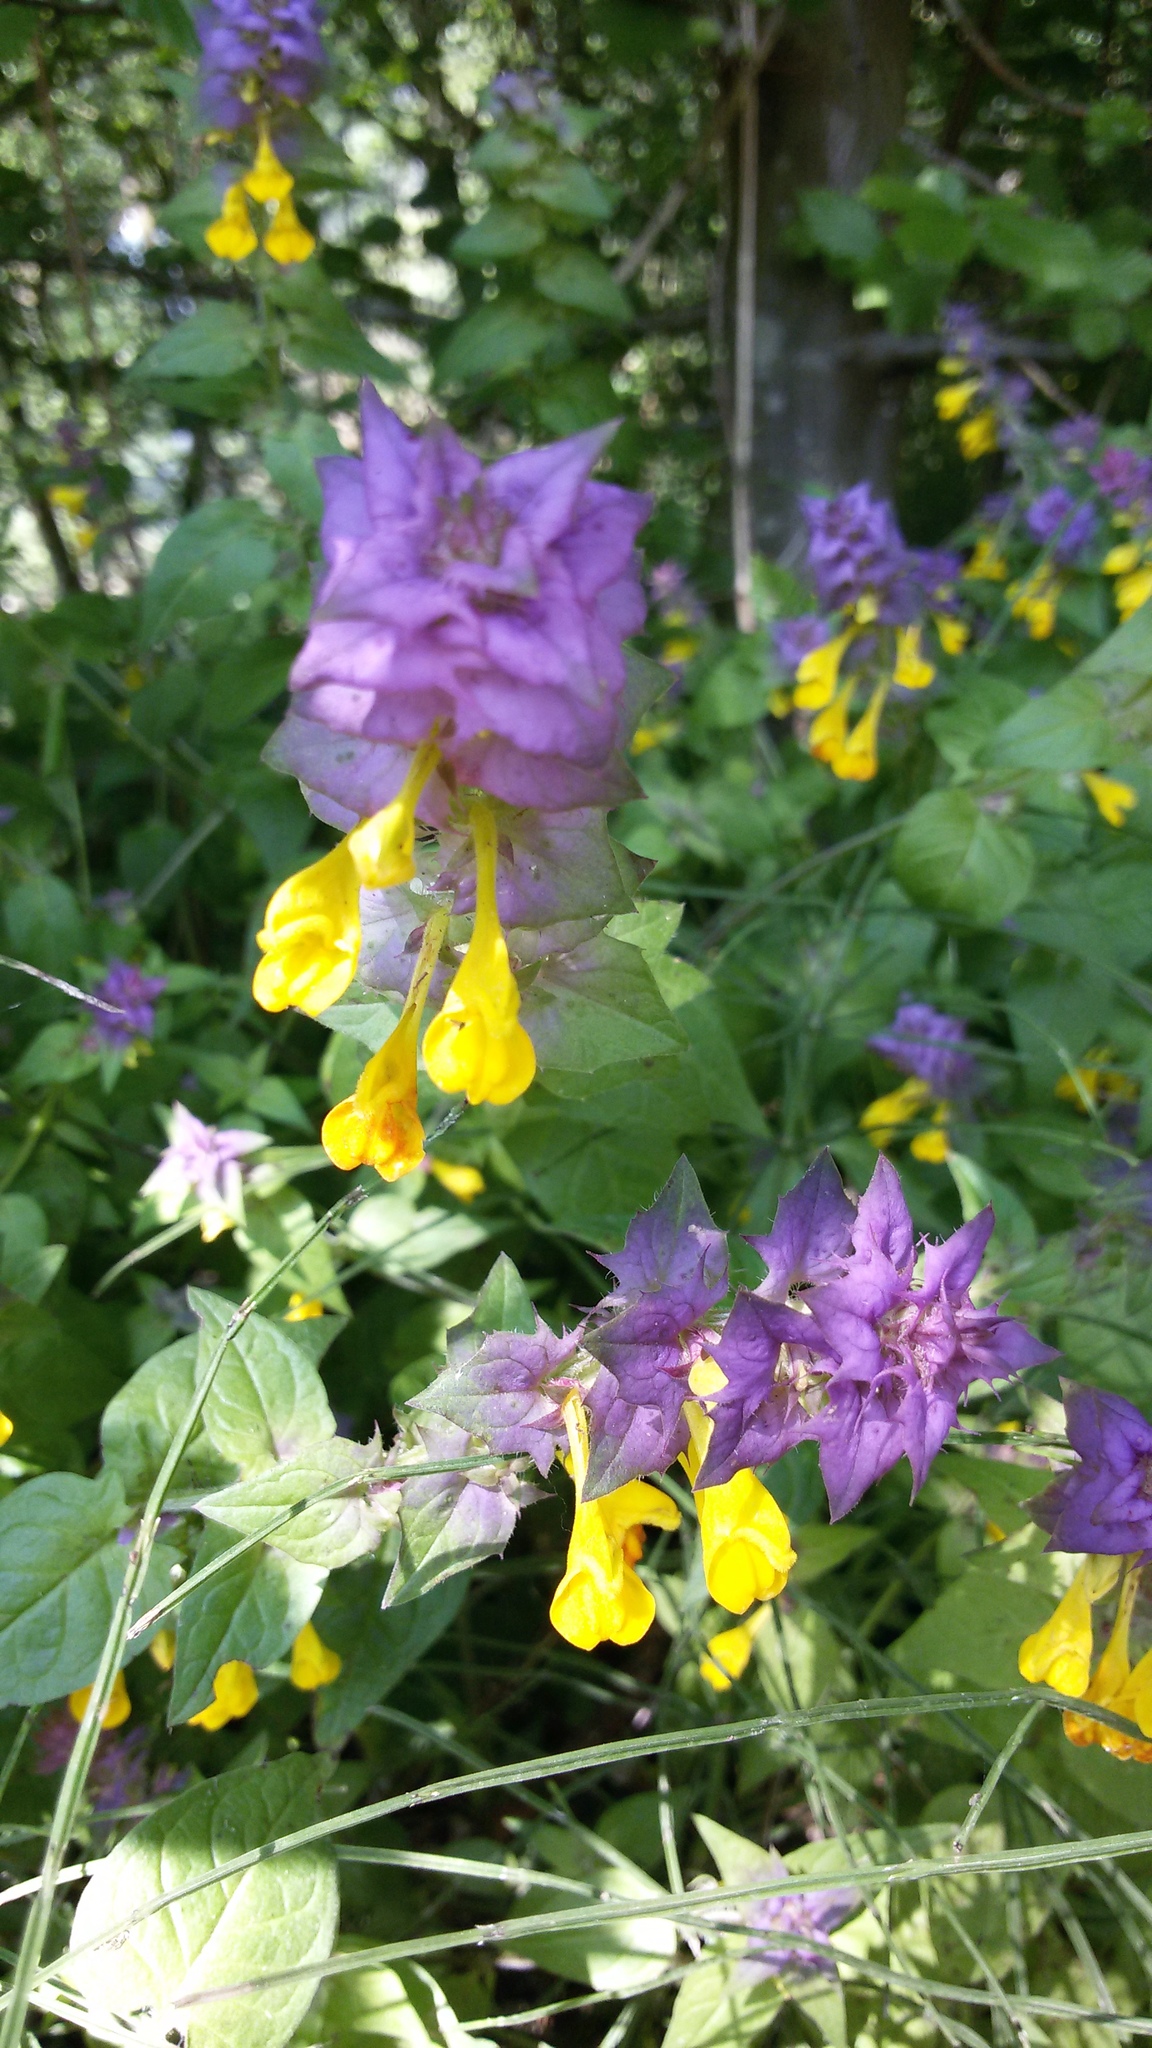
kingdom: Plantae
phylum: Tracheophyta
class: Magnoliopsida
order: Lamiales
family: Orobanchaceae
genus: Melampyrum
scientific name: Melampyrum nemorosum
